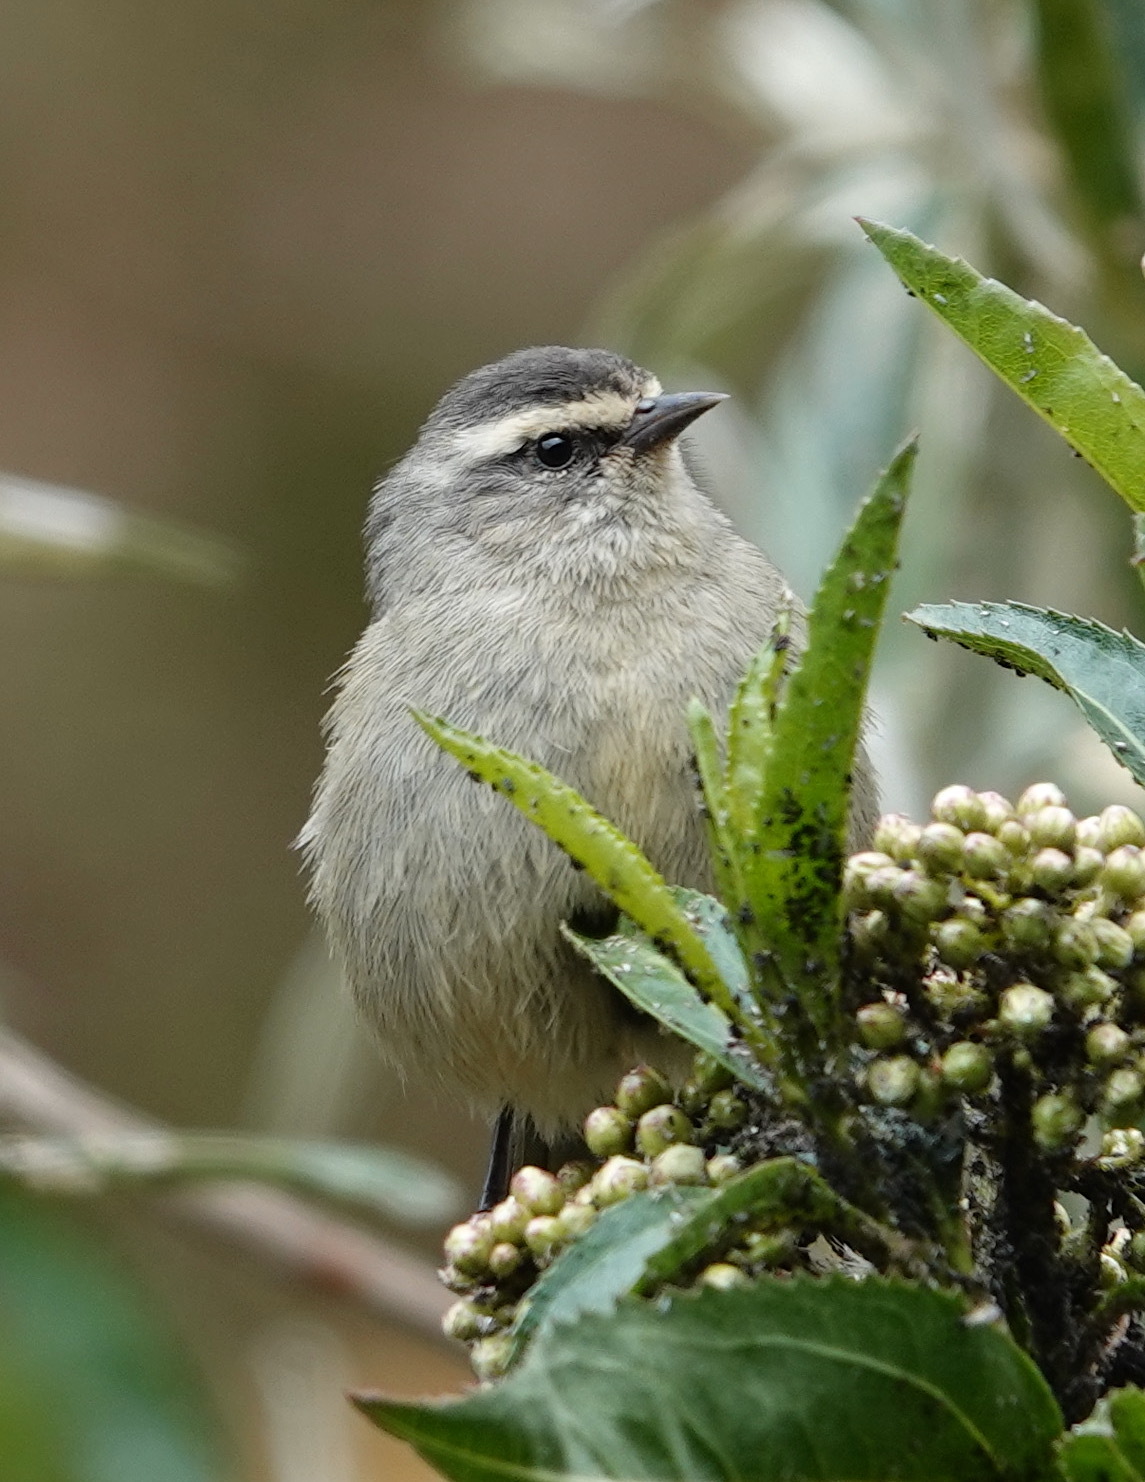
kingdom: Animalia
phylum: Chordata
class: Aves
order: Passeriformes
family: Thraupidae
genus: Conirostrum
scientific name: Conirostrum cinereum
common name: Cinereous conebill
